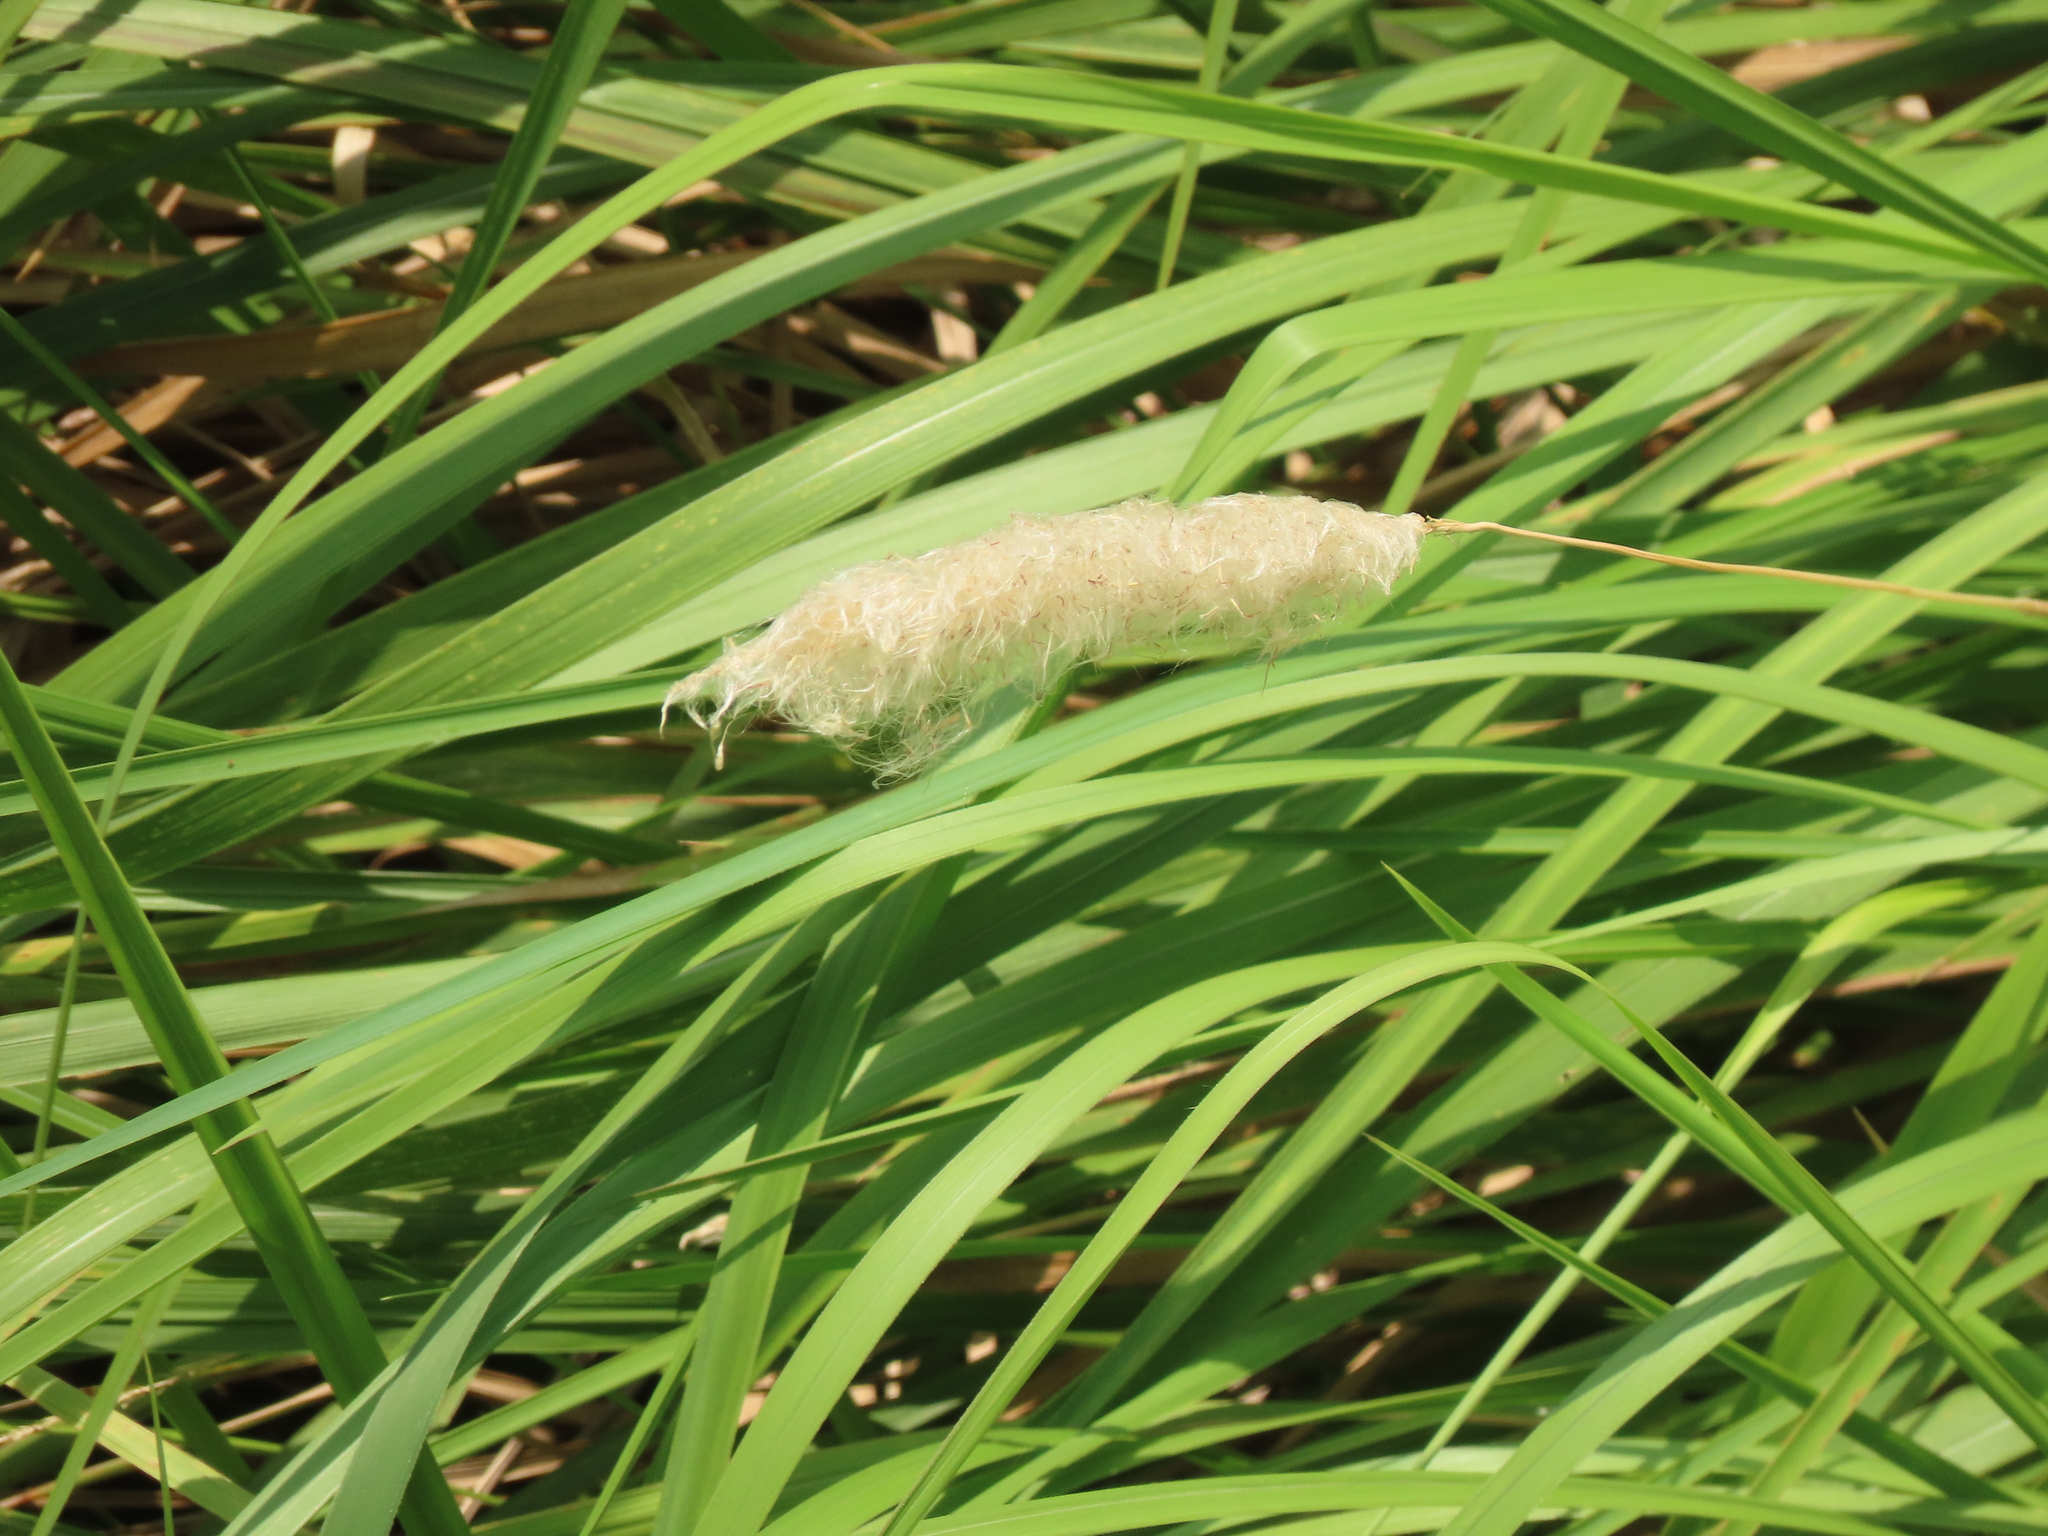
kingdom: Plantae
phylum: Tracheophyta
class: Liliopsida
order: Poales
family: Poaceae
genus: Imperata
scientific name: Imperata cylindrica
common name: Cogongrass
